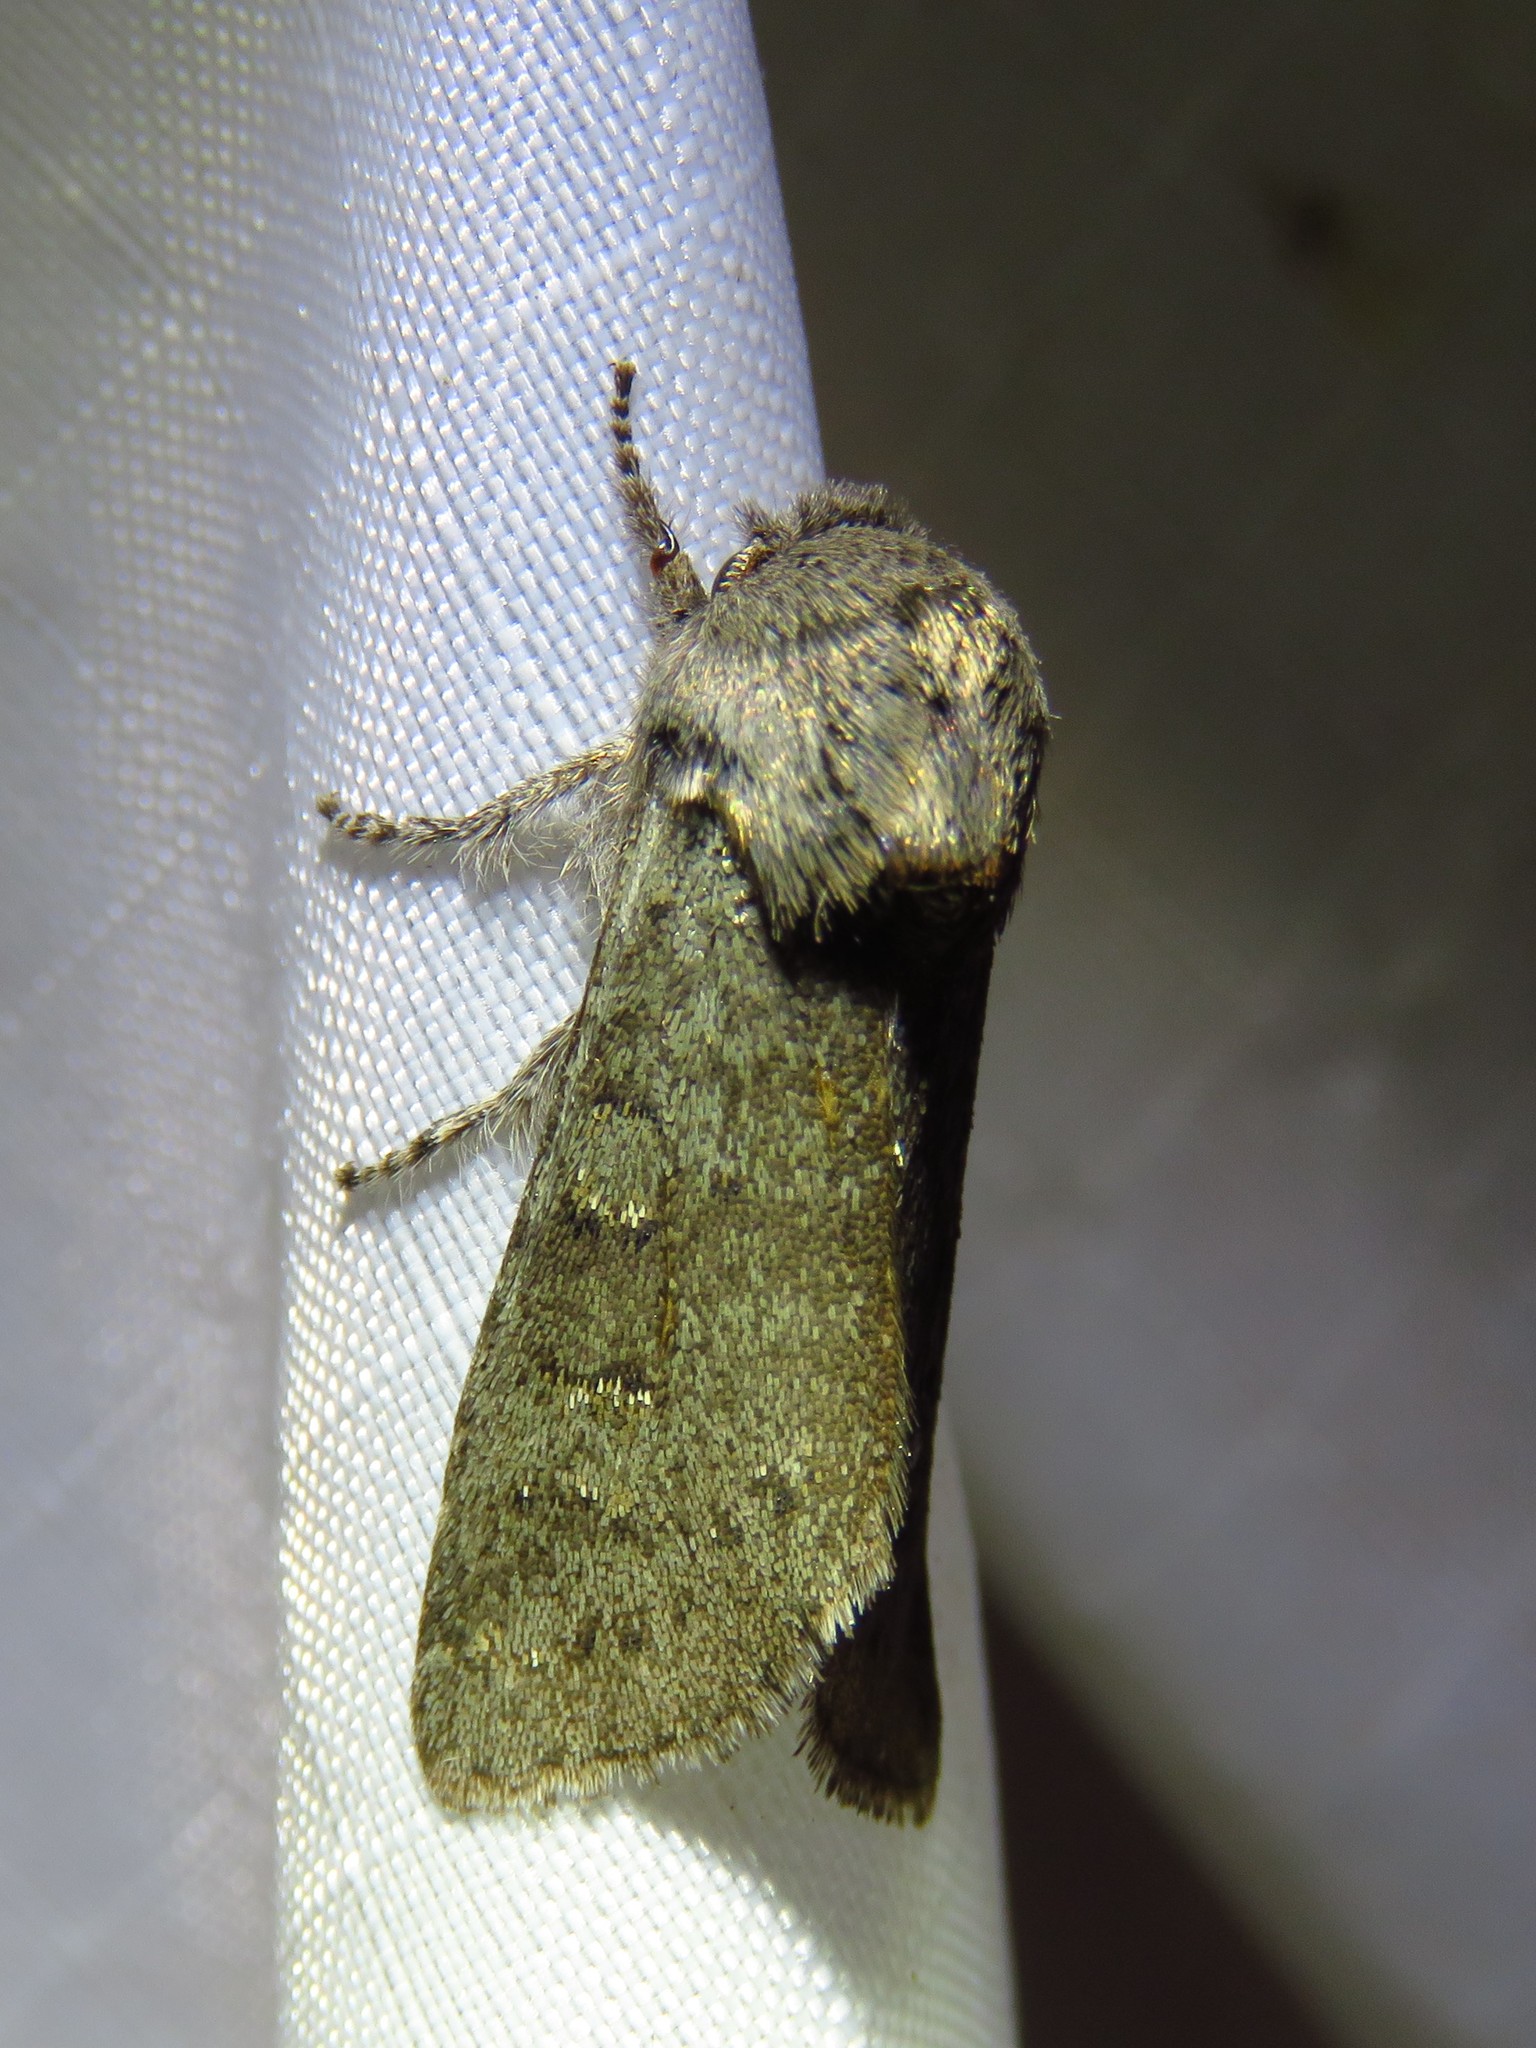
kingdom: Animalia
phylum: Arthropoda
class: Insecta
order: Lepidoptera
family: Noctuidae
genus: Psaphida
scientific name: Psaphida rolandi
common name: Roland's sallow
